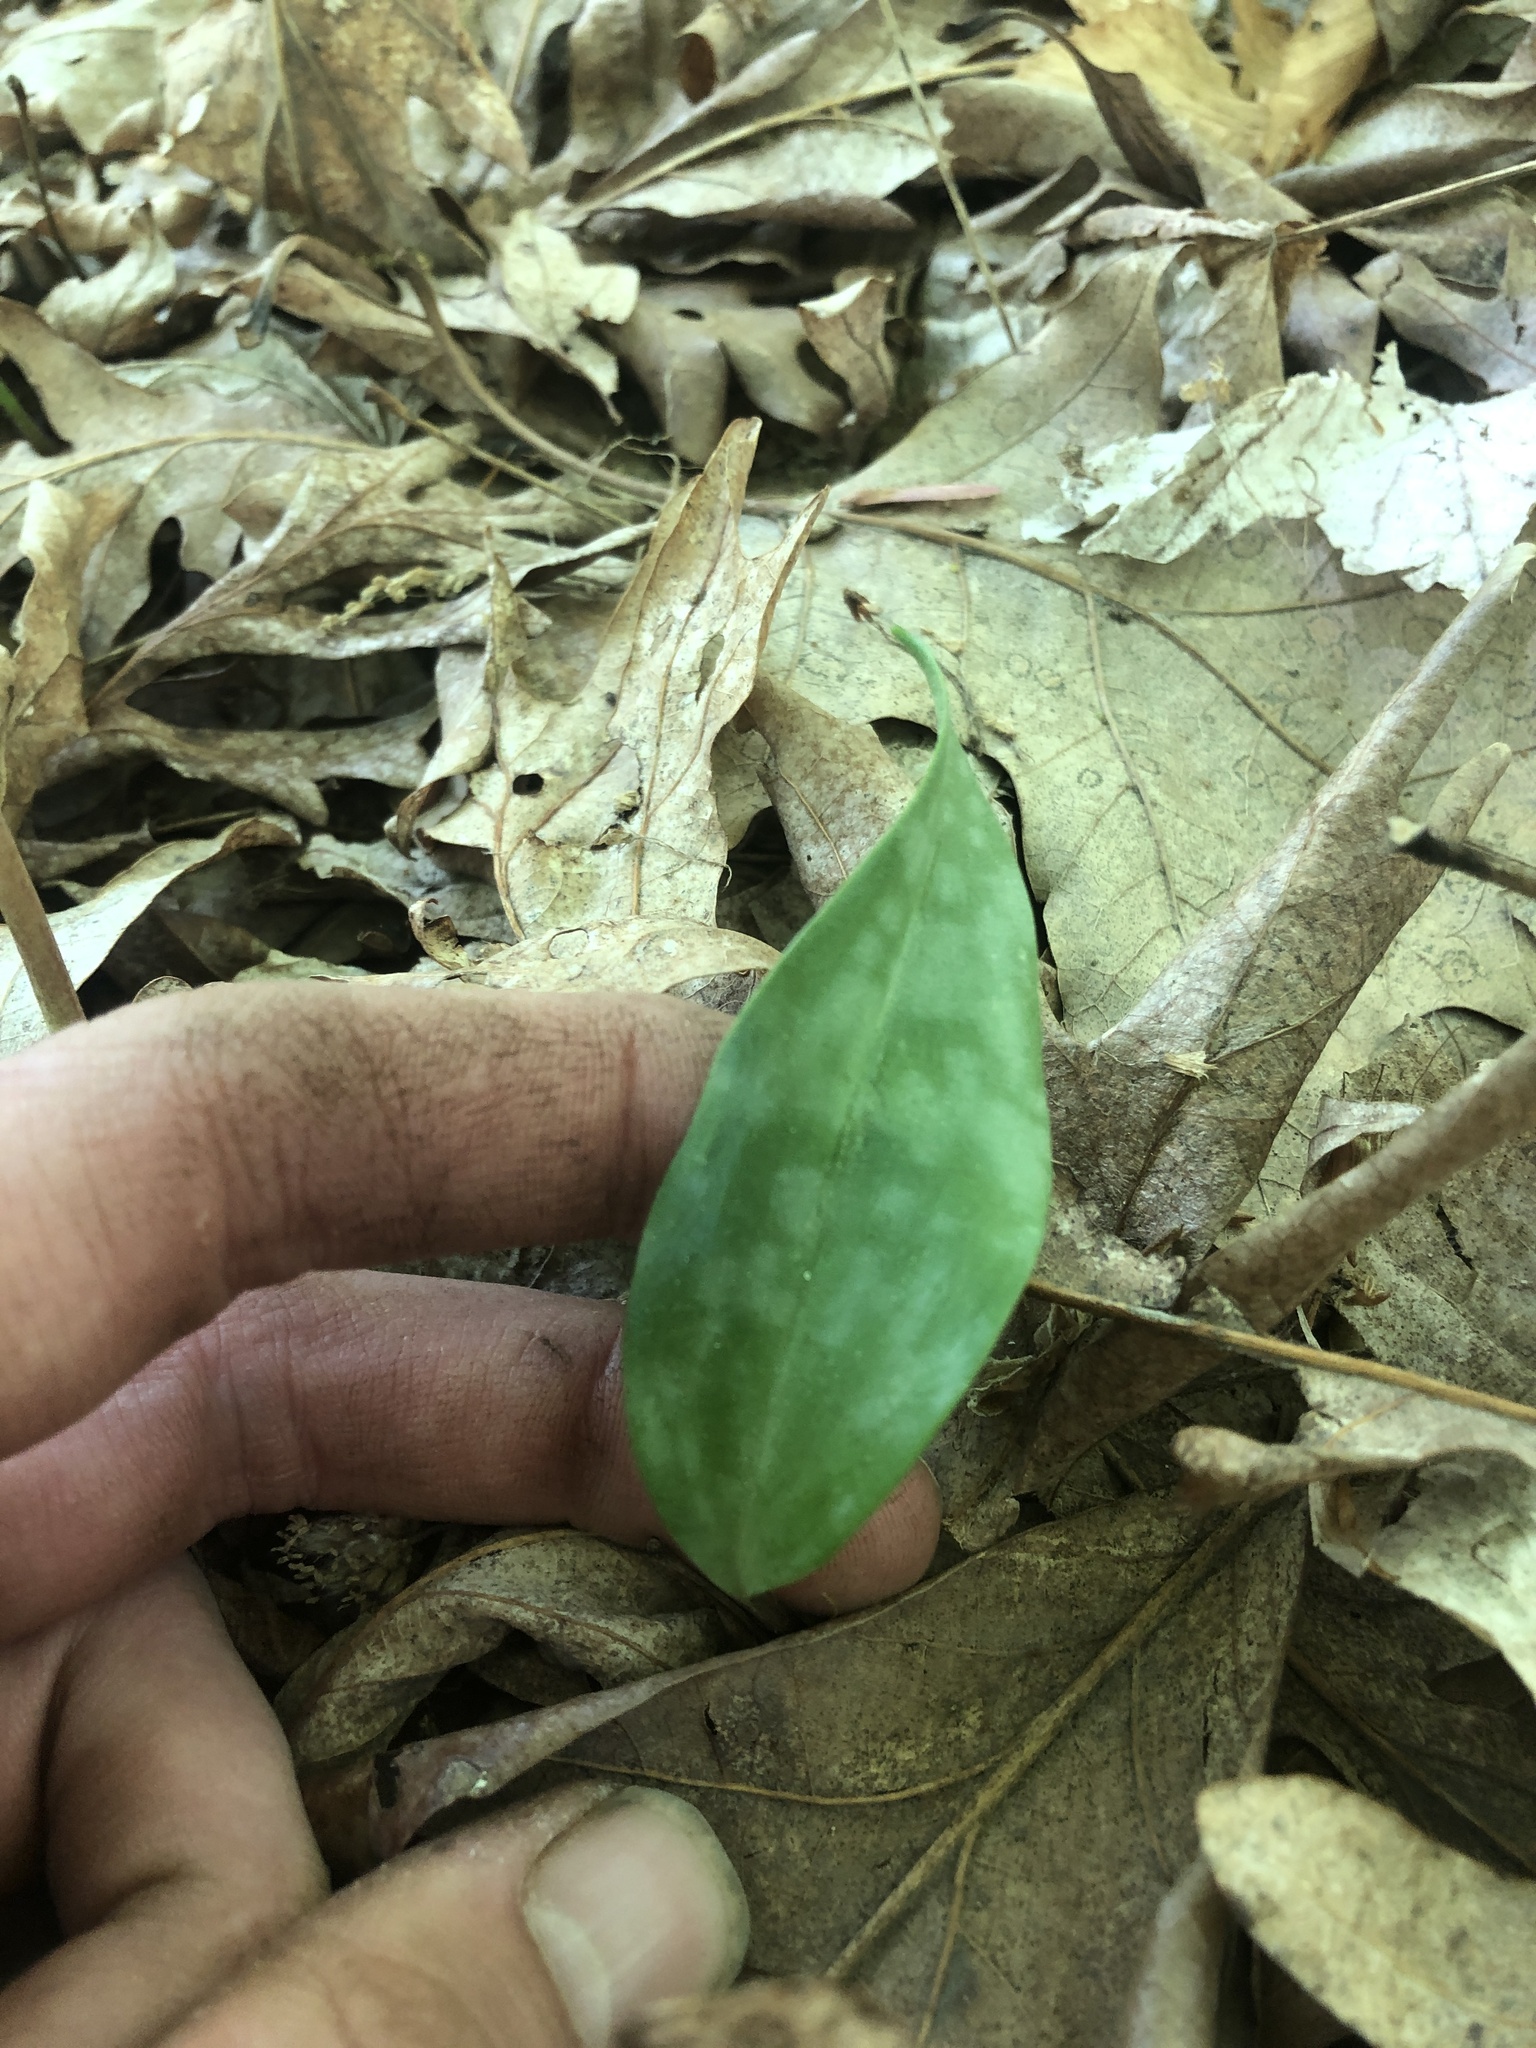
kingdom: Plantae
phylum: Tracheophyta
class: Liliopsida
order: Liliales
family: Liliaceae
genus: Erythronium
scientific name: Erythronium americanum
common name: Yellow adder's-tongue
